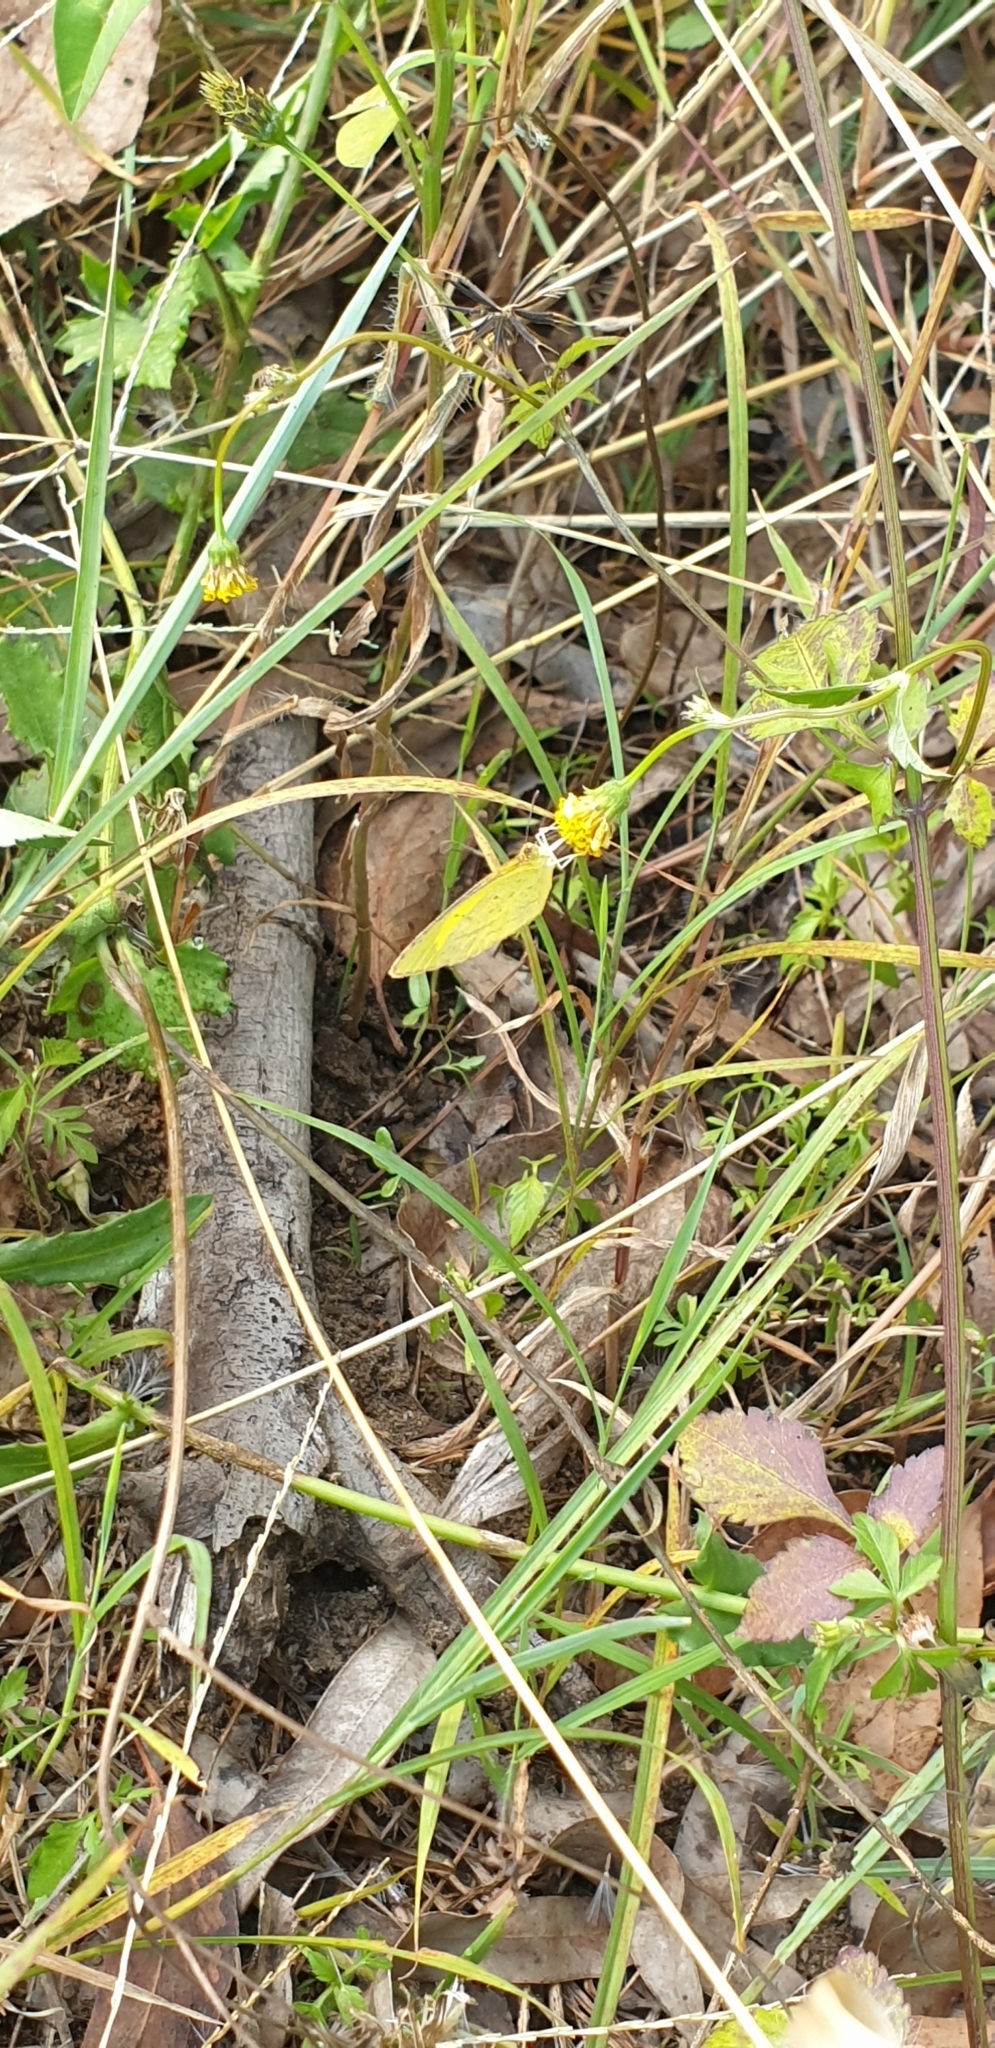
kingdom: Animalia
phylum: Arthropoda
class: Insecta
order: Lepidoptera
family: Pieridae
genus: Eurema
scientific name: Eurema herla
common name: Macleay's grass yellow
